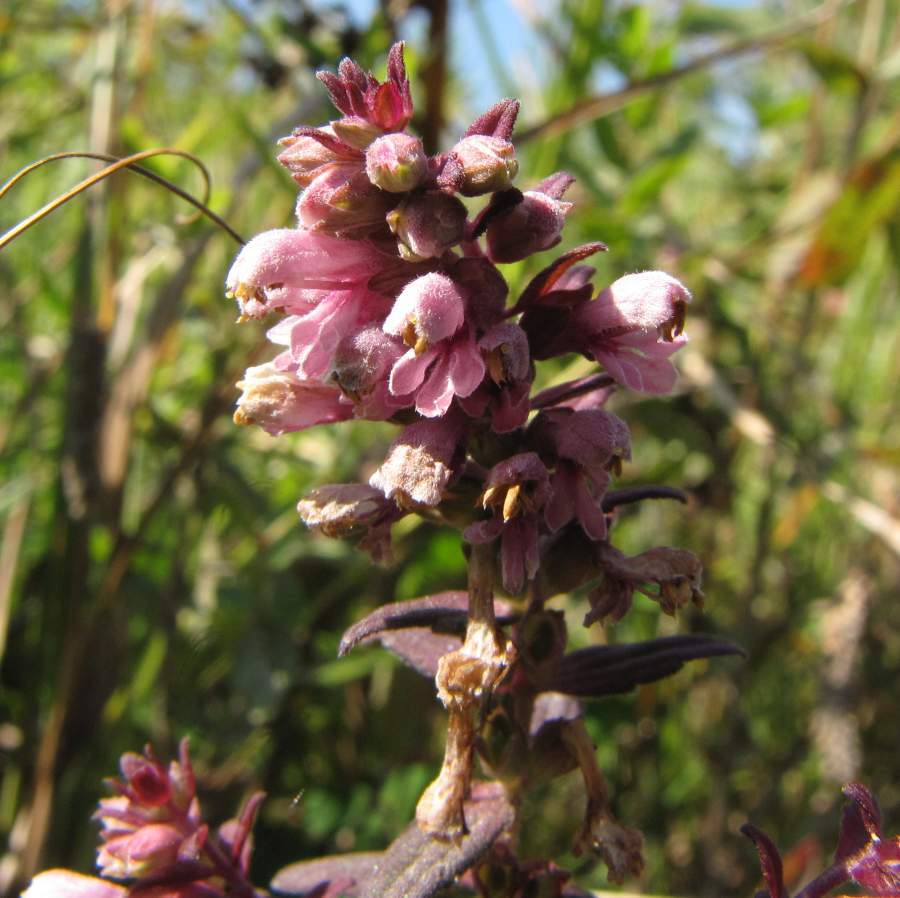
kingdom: Plantae
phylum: Tracheophyta
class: Magnoliopsida
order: Lamiales
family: Orobanchaceae
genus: Odontites
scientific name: Odontites vulgaris
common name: Broomrape
